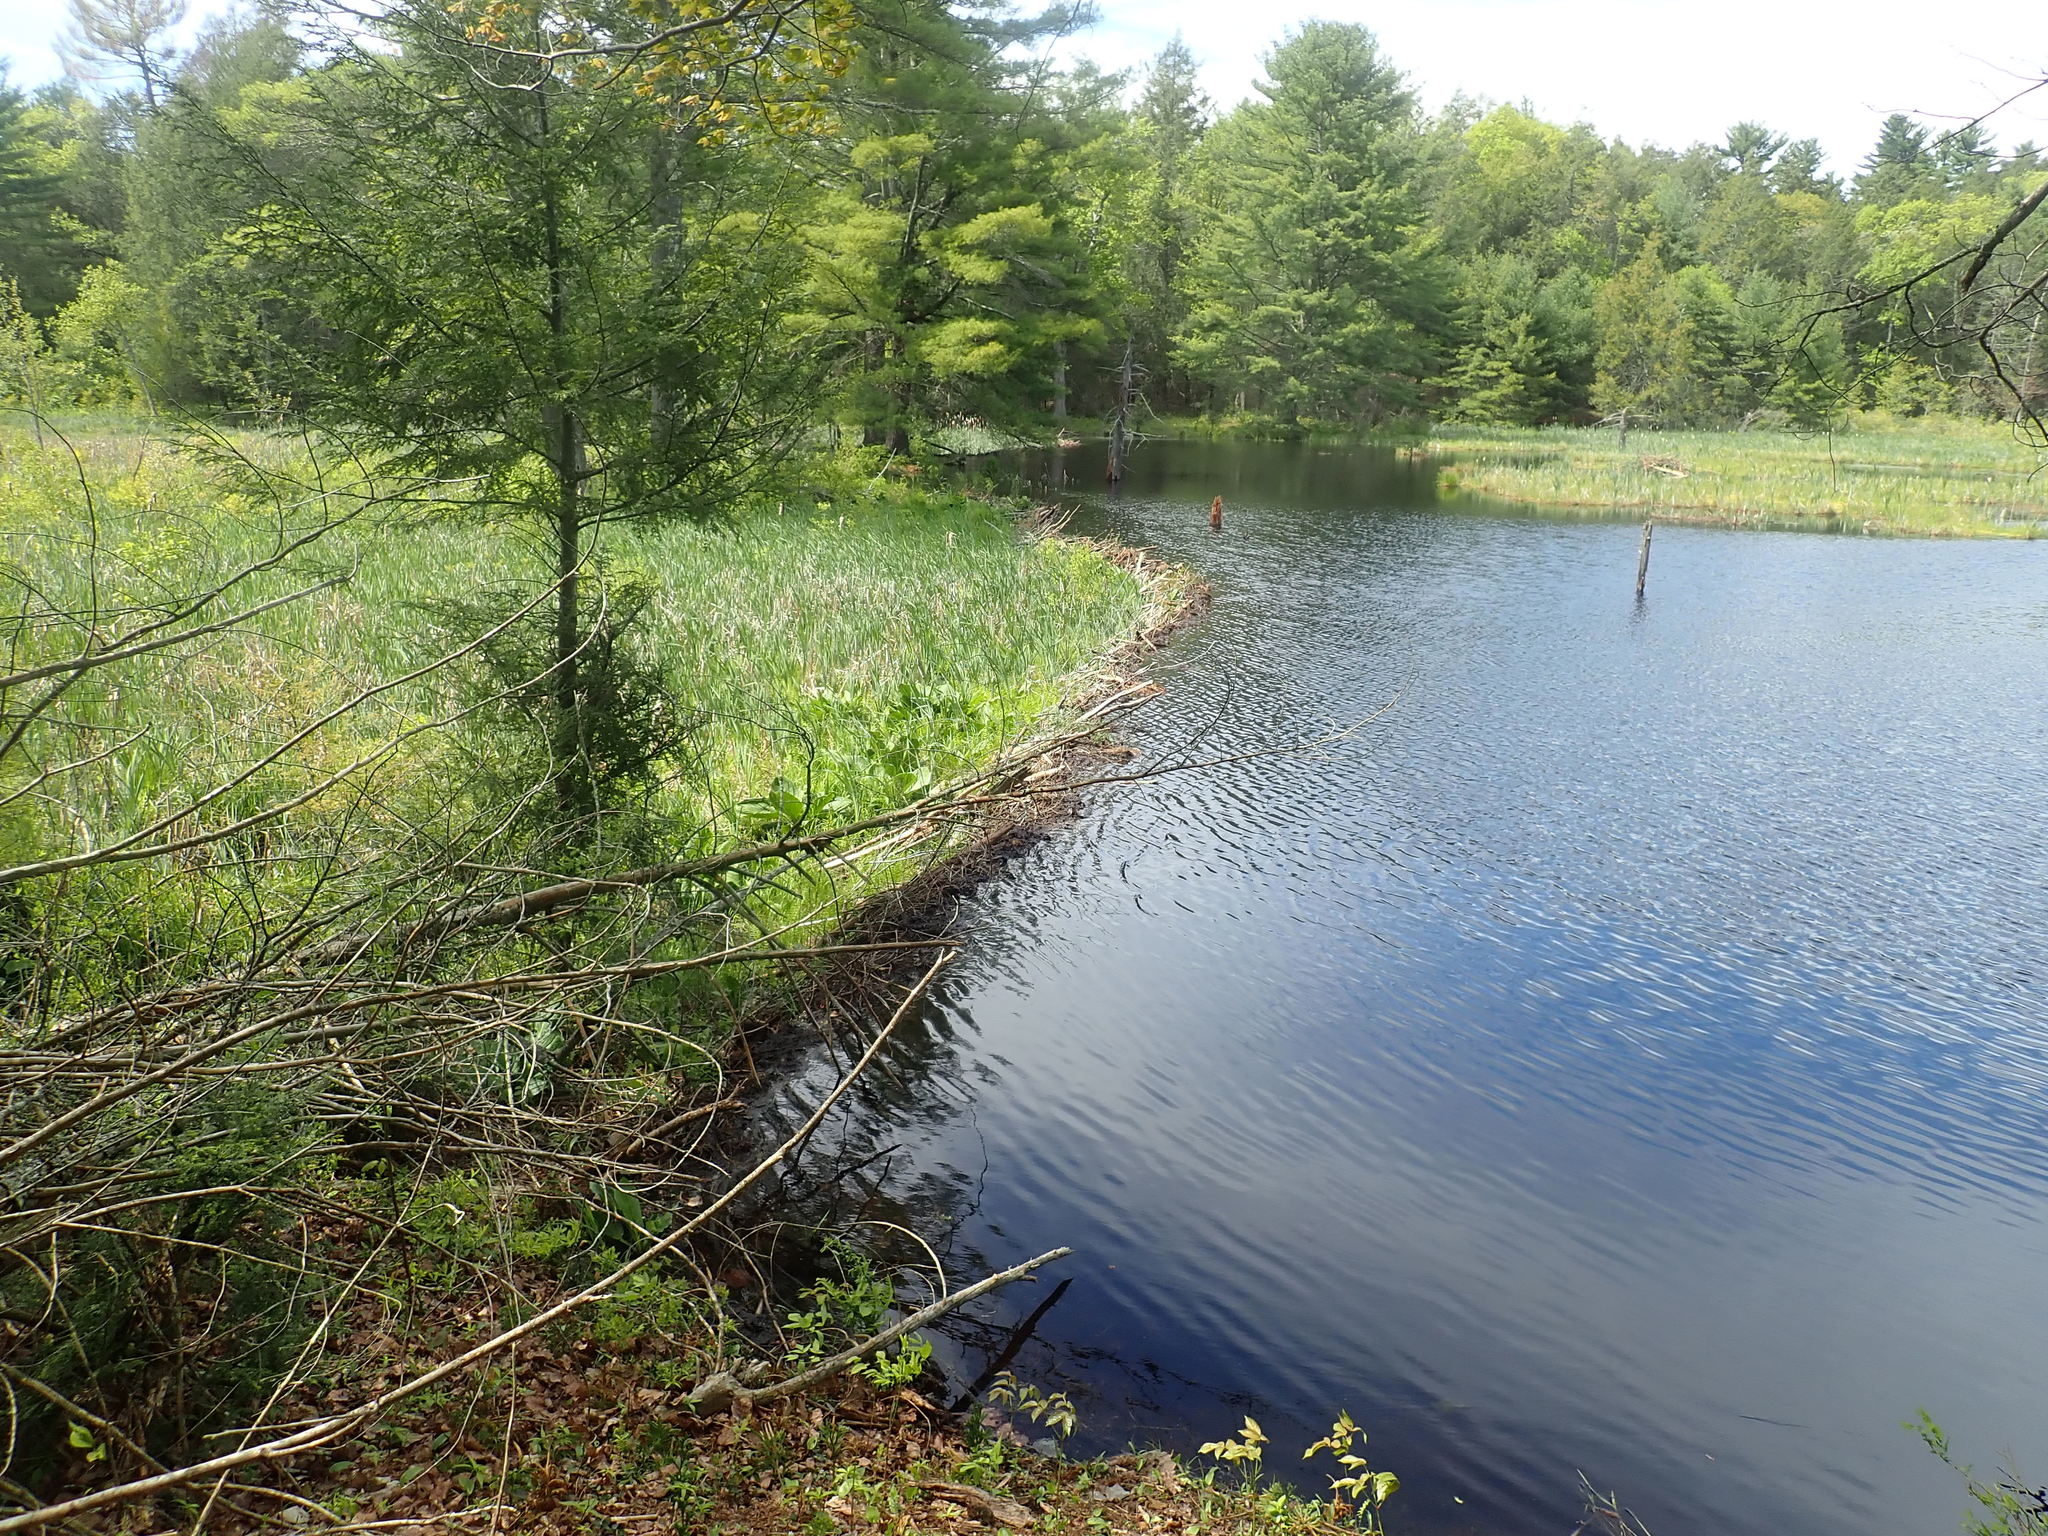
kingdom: Animalia
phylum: Chordata
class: Mammalia
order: Rodentia
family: Castoridae
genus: Castor
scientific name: Castor canadensis
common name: American beaver
